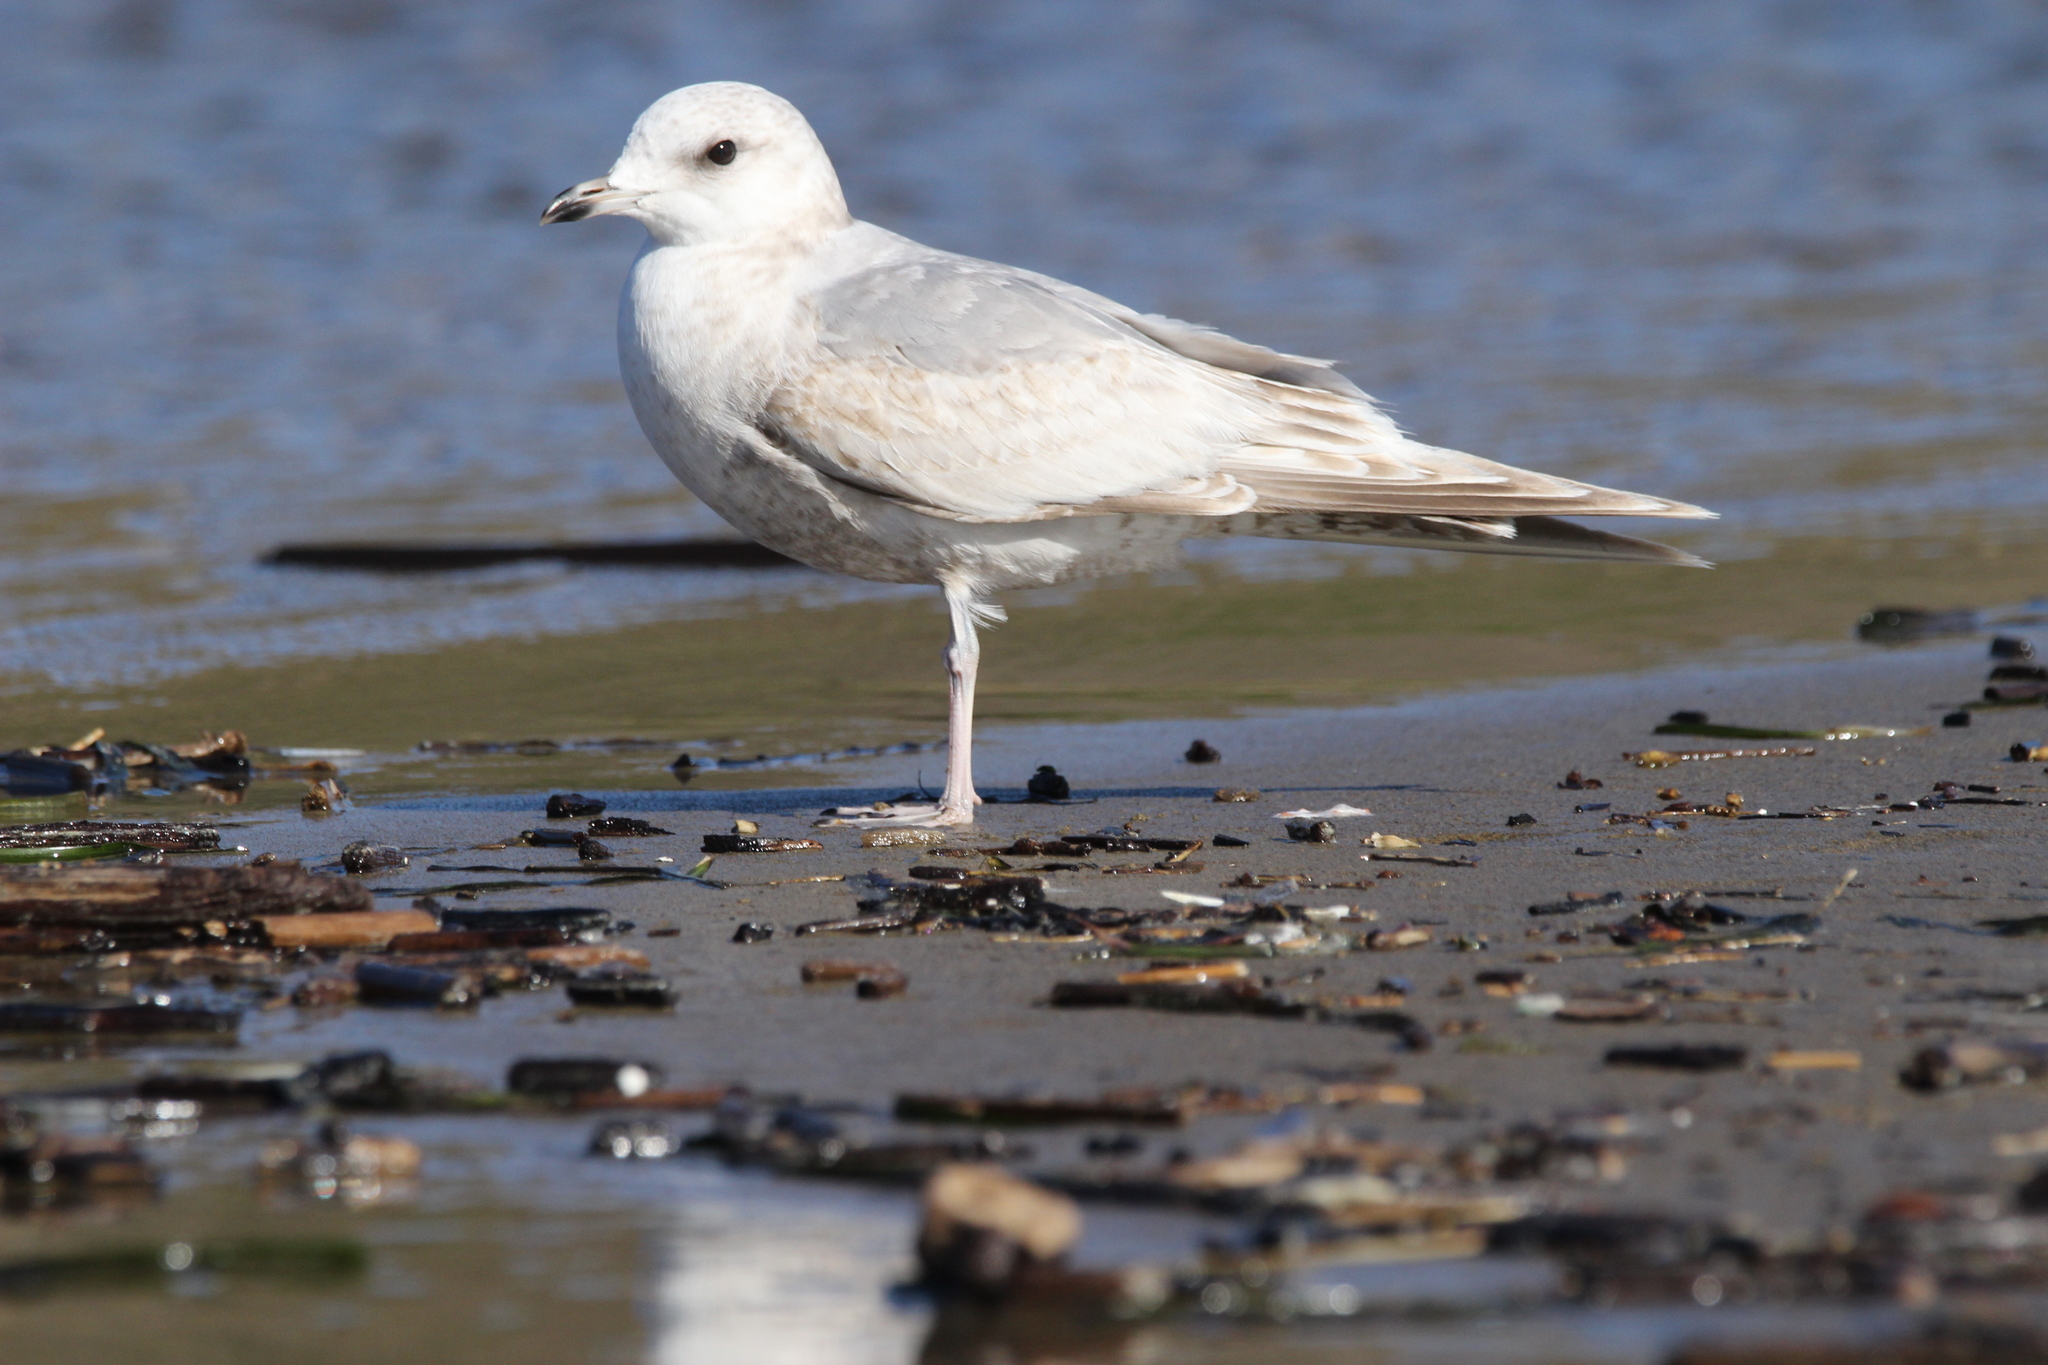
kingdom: Animalia
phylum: Chordata
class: Aves
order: Charadriiformes
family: Laridae
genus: Larus
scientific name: Larus brachyrhynchus
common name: Short-billed gull
